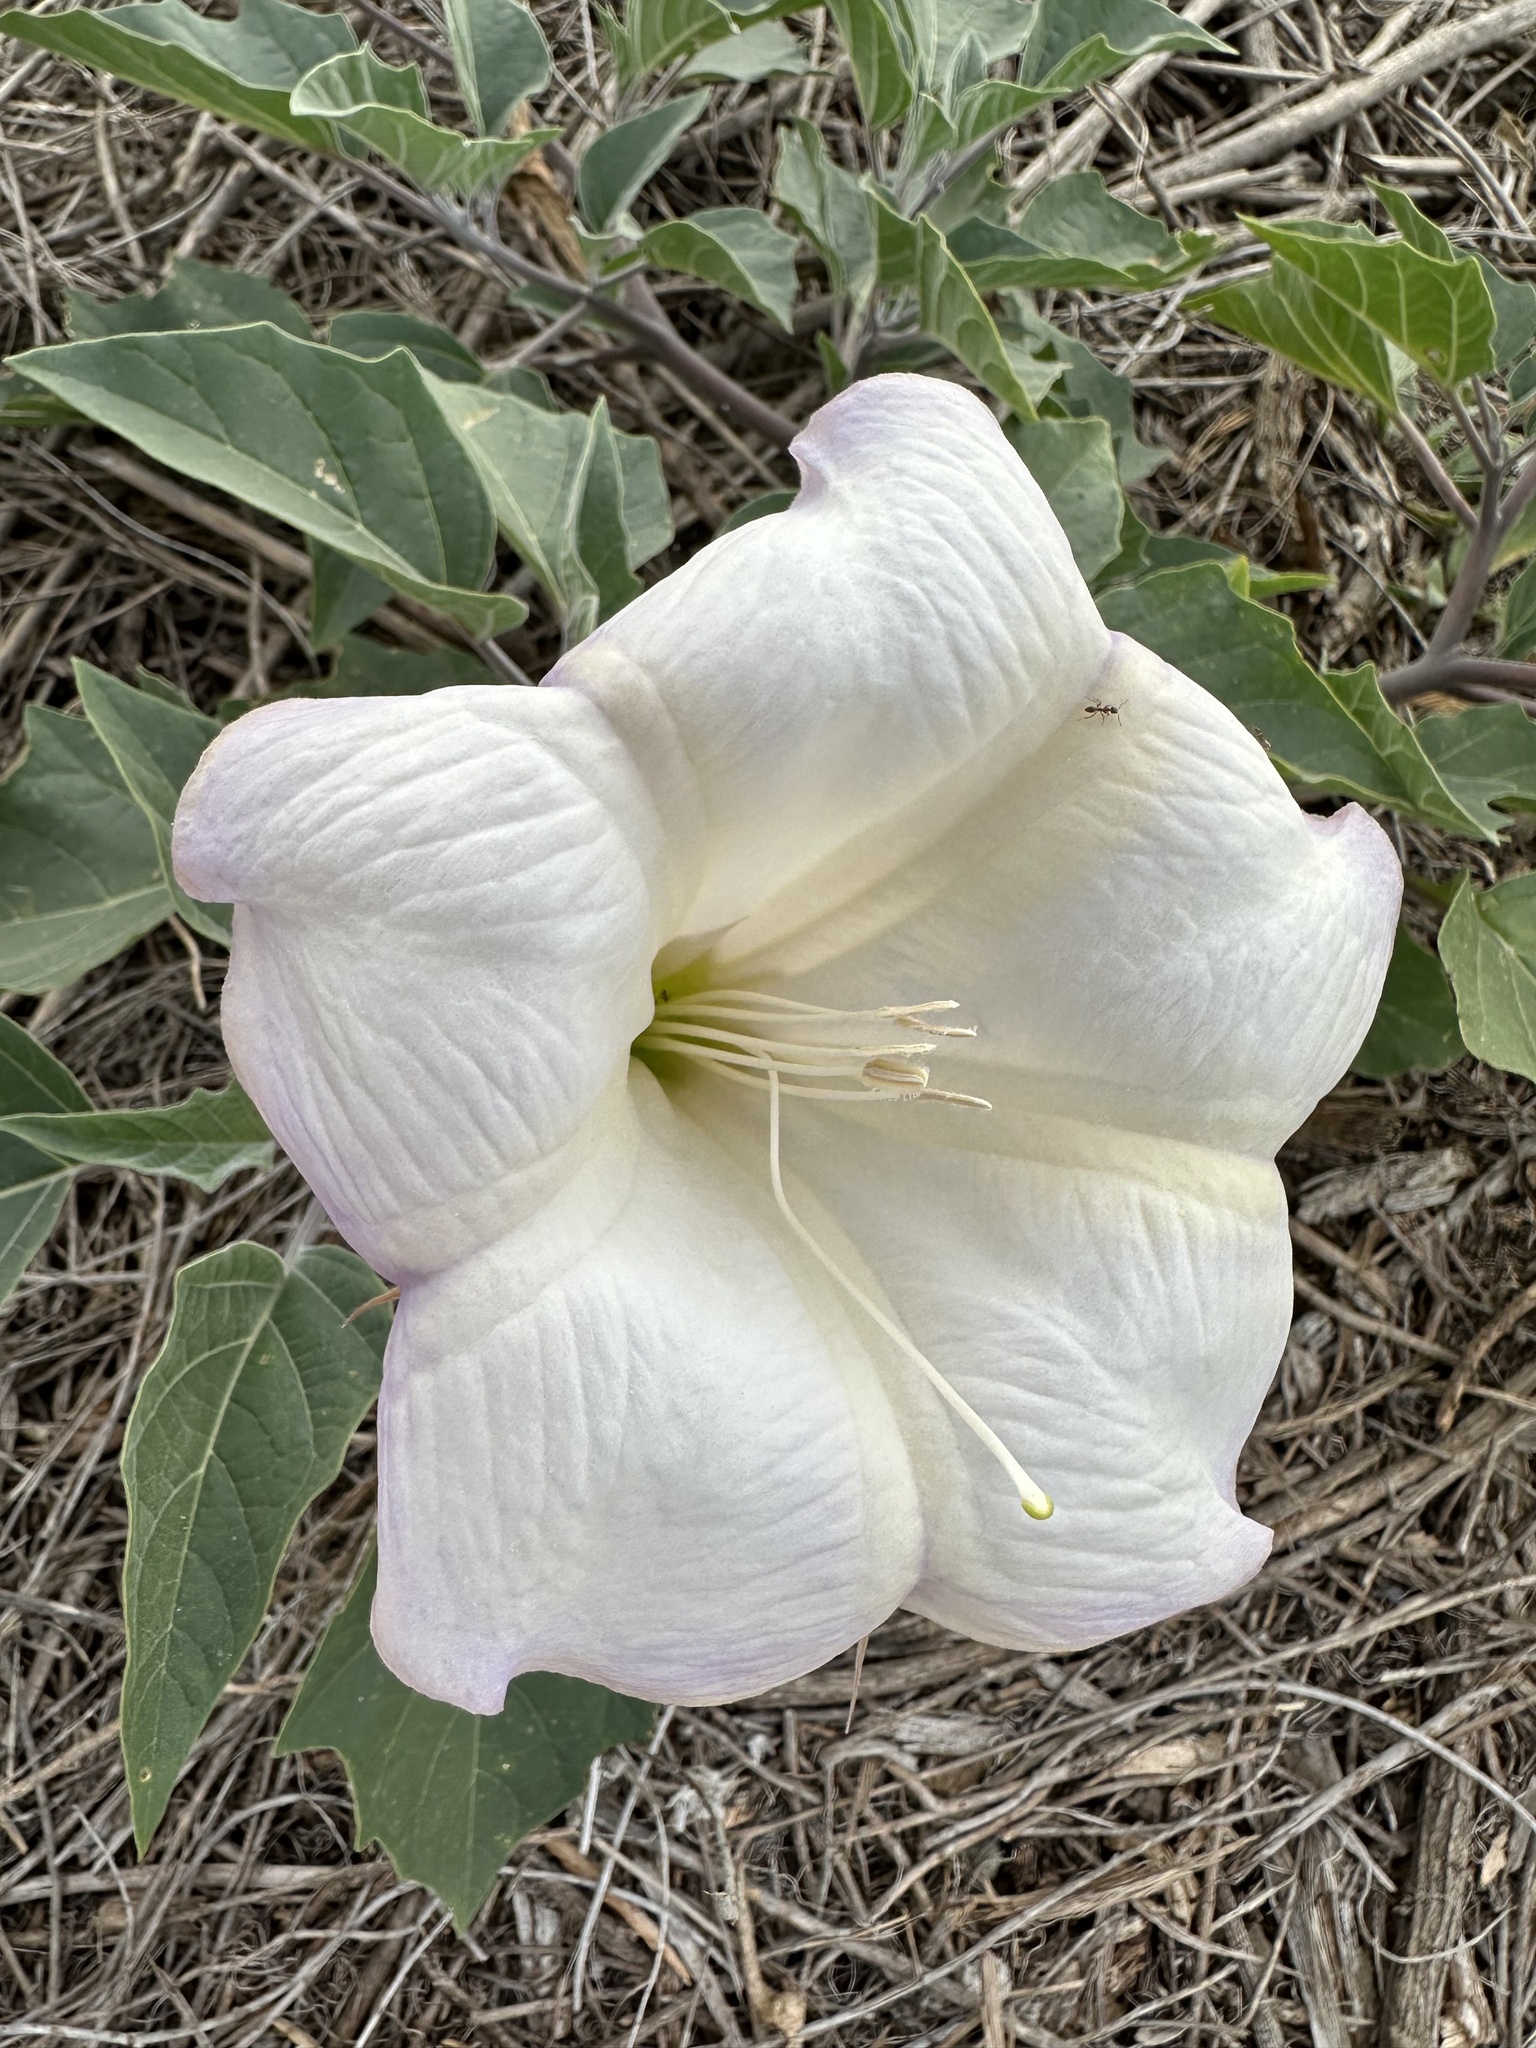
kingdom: Plantae
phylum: Tracheophyta
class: Magnoliopsida
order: Solanales
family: Solanaceae
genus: Datura
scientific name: Datura wrightii
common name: Sacred thorn-apple
